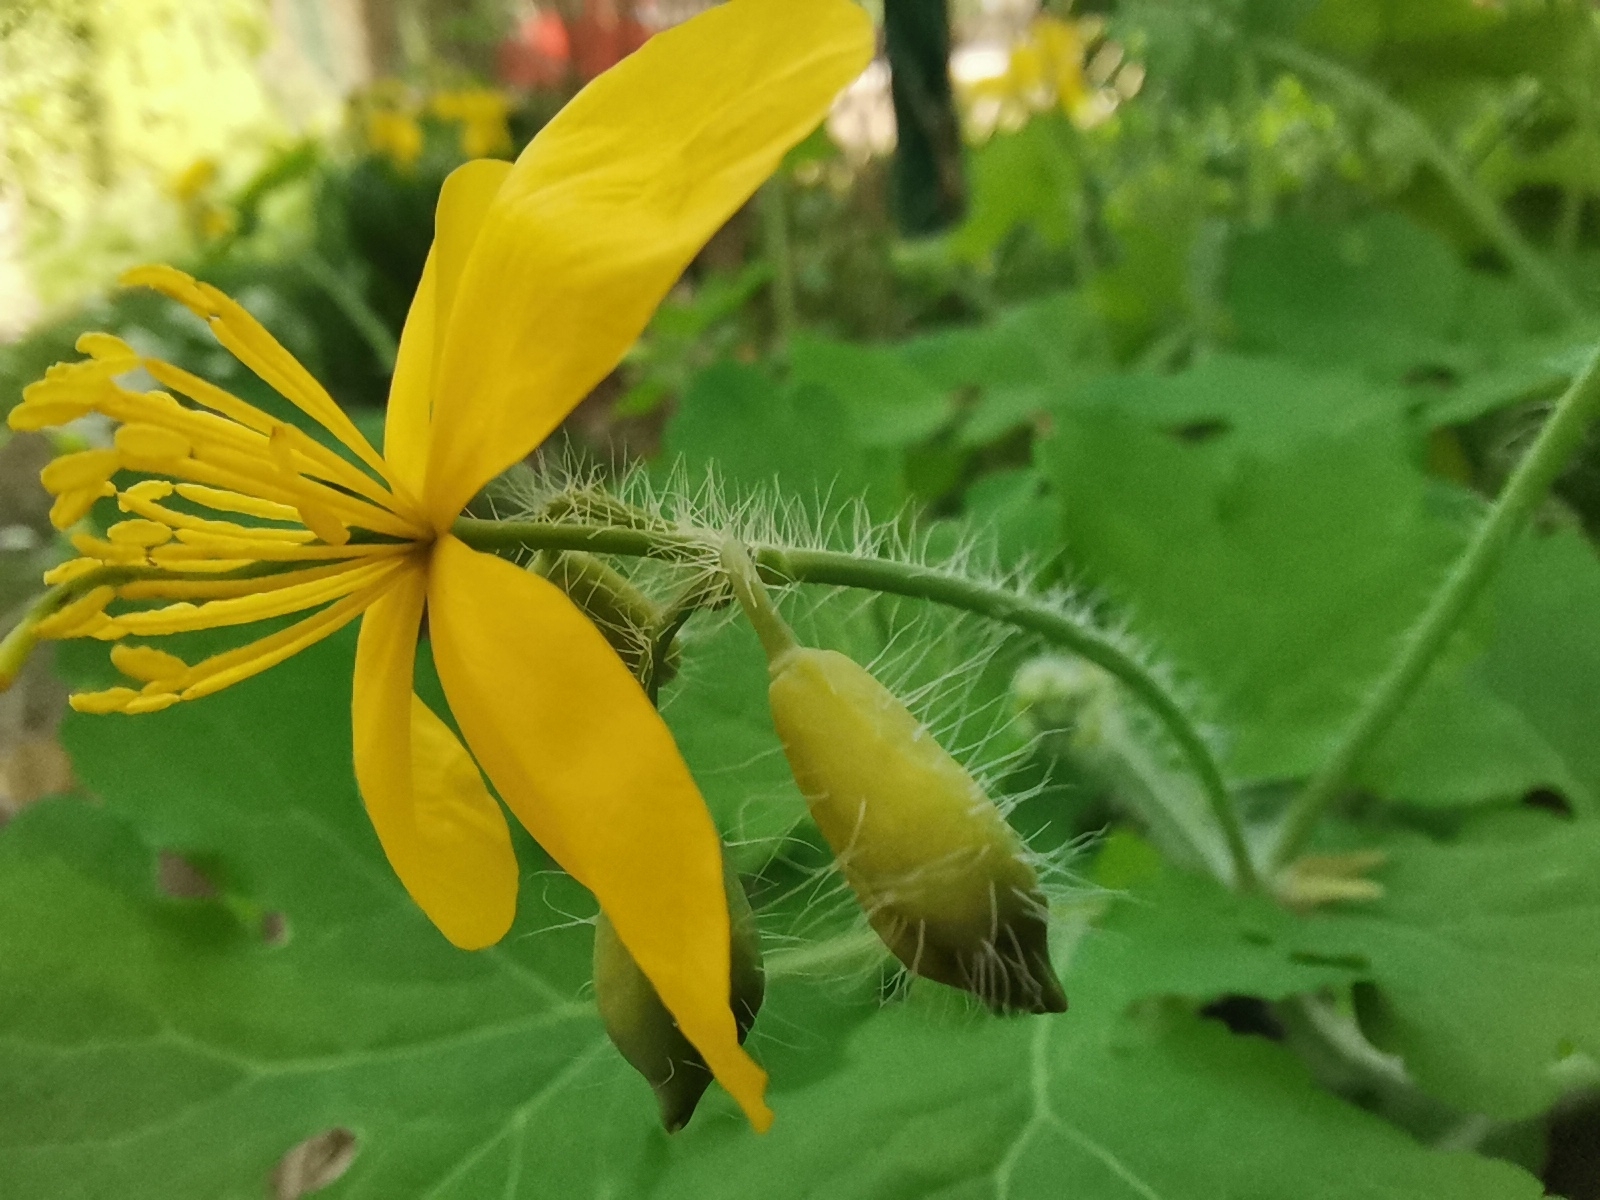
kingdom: Plantae
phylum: Tracheophyta
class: Magnoliopsida
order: Ranunculales
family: Papaveraceae
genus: Chelidonium
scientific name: Chelidonium majus
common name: Greater celandine
